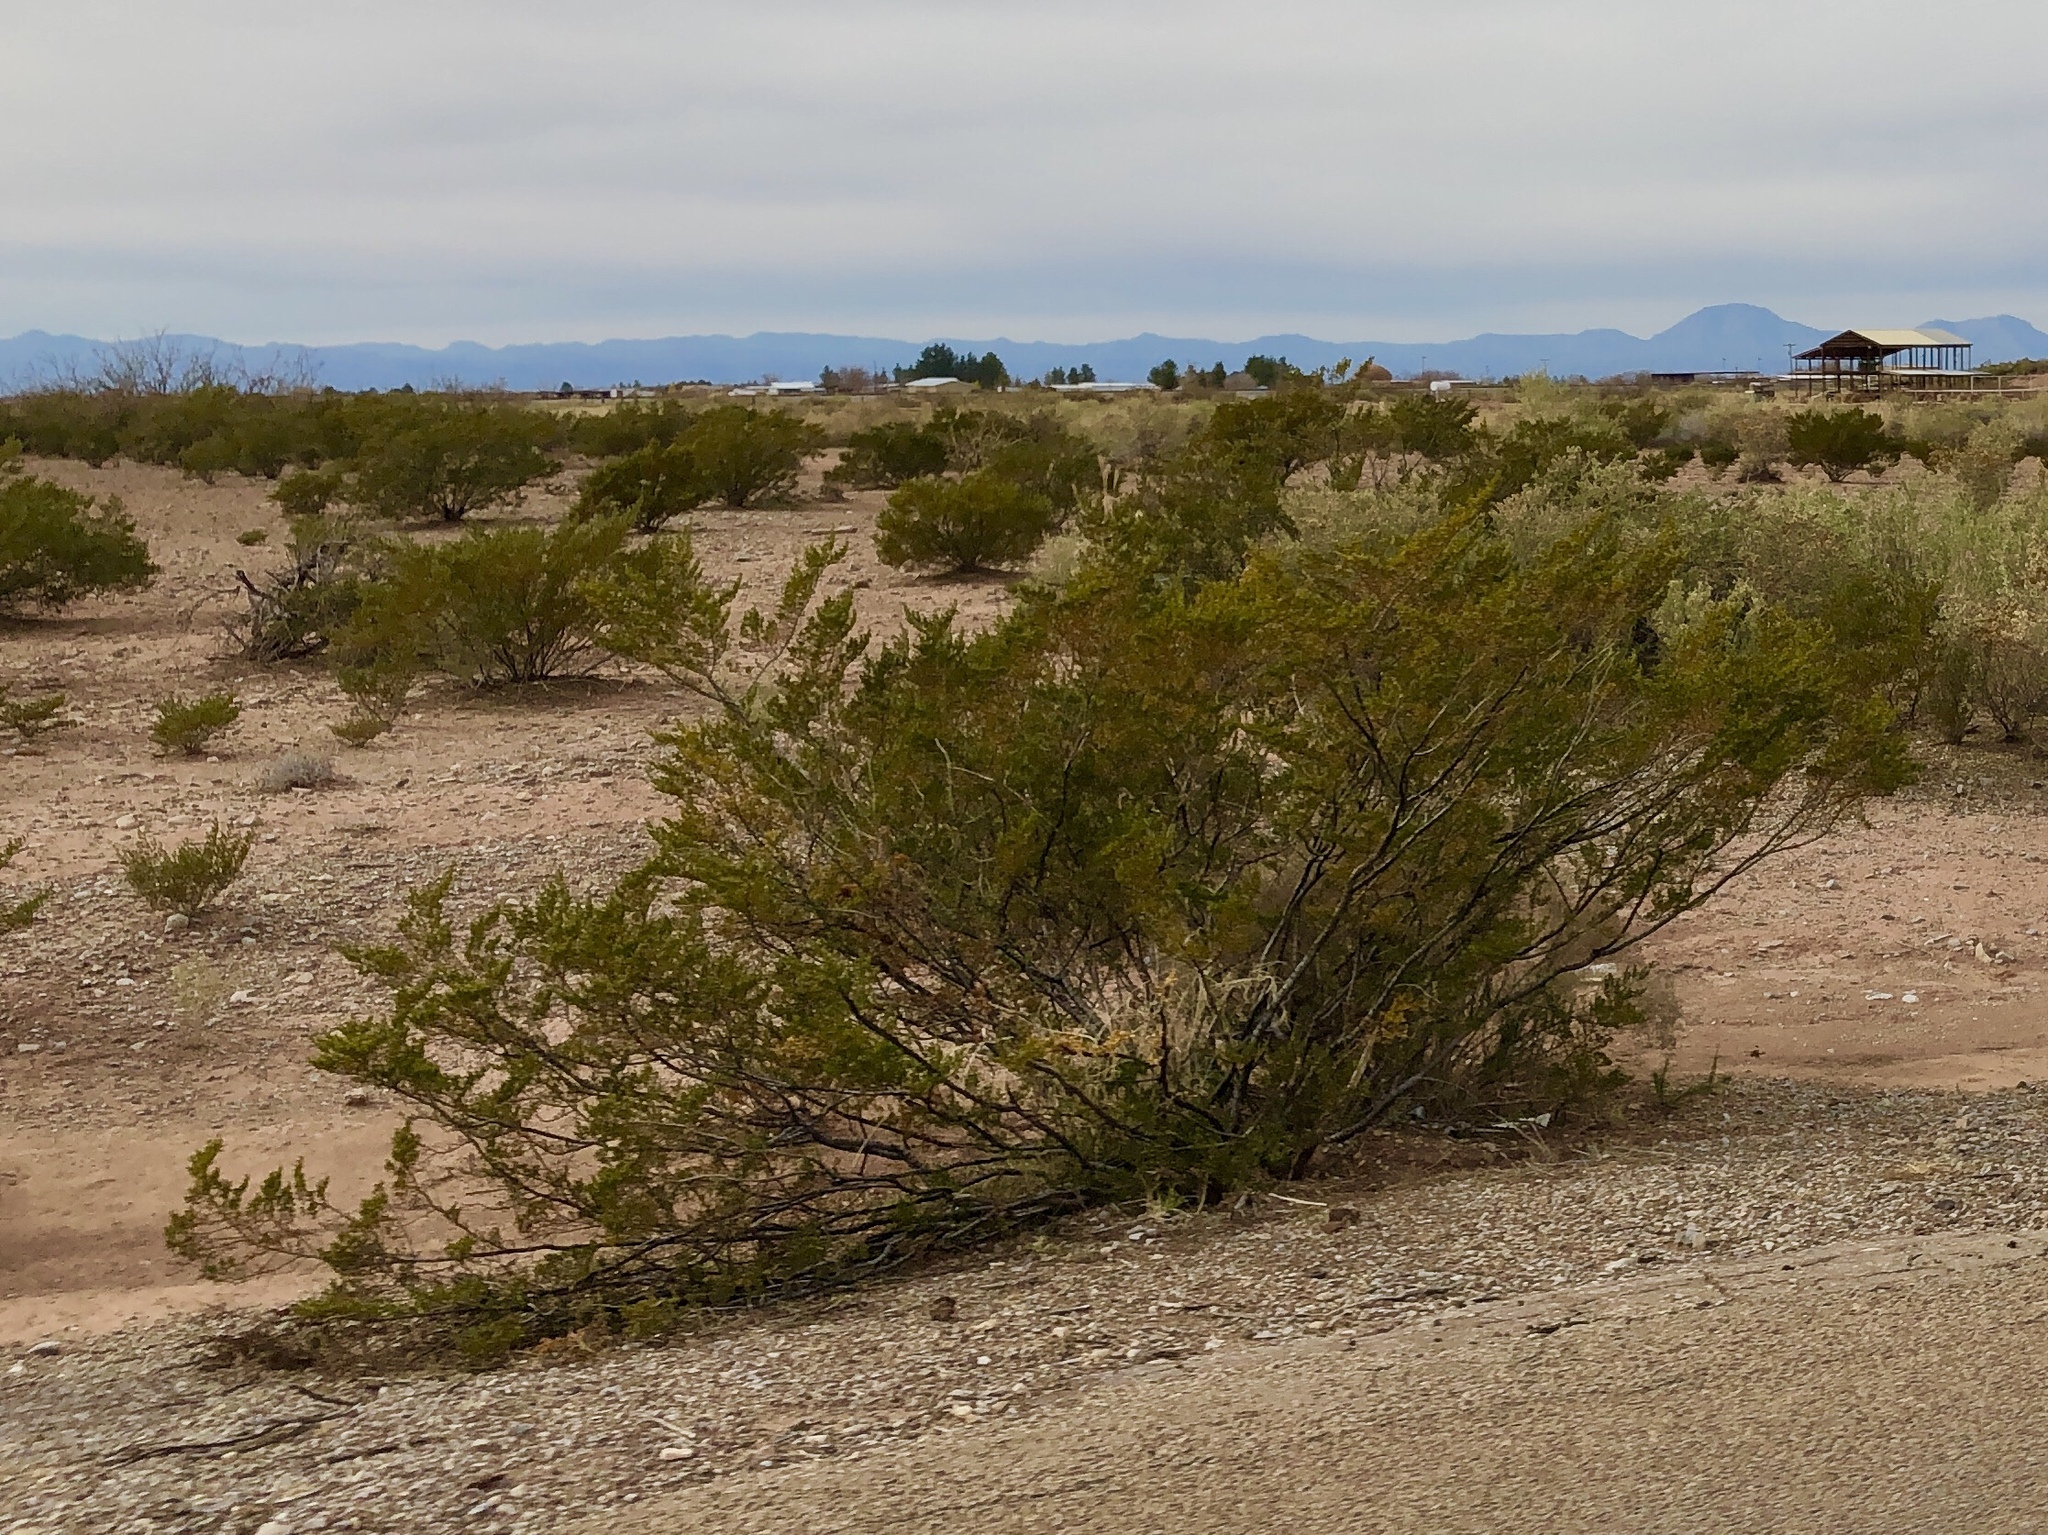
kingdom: Plantae
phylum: Tracheophyta
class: Magnoliopsida
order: Zygophyllales
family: Zygophyllaceae
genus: Larrea
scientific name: Larrea tridentata
